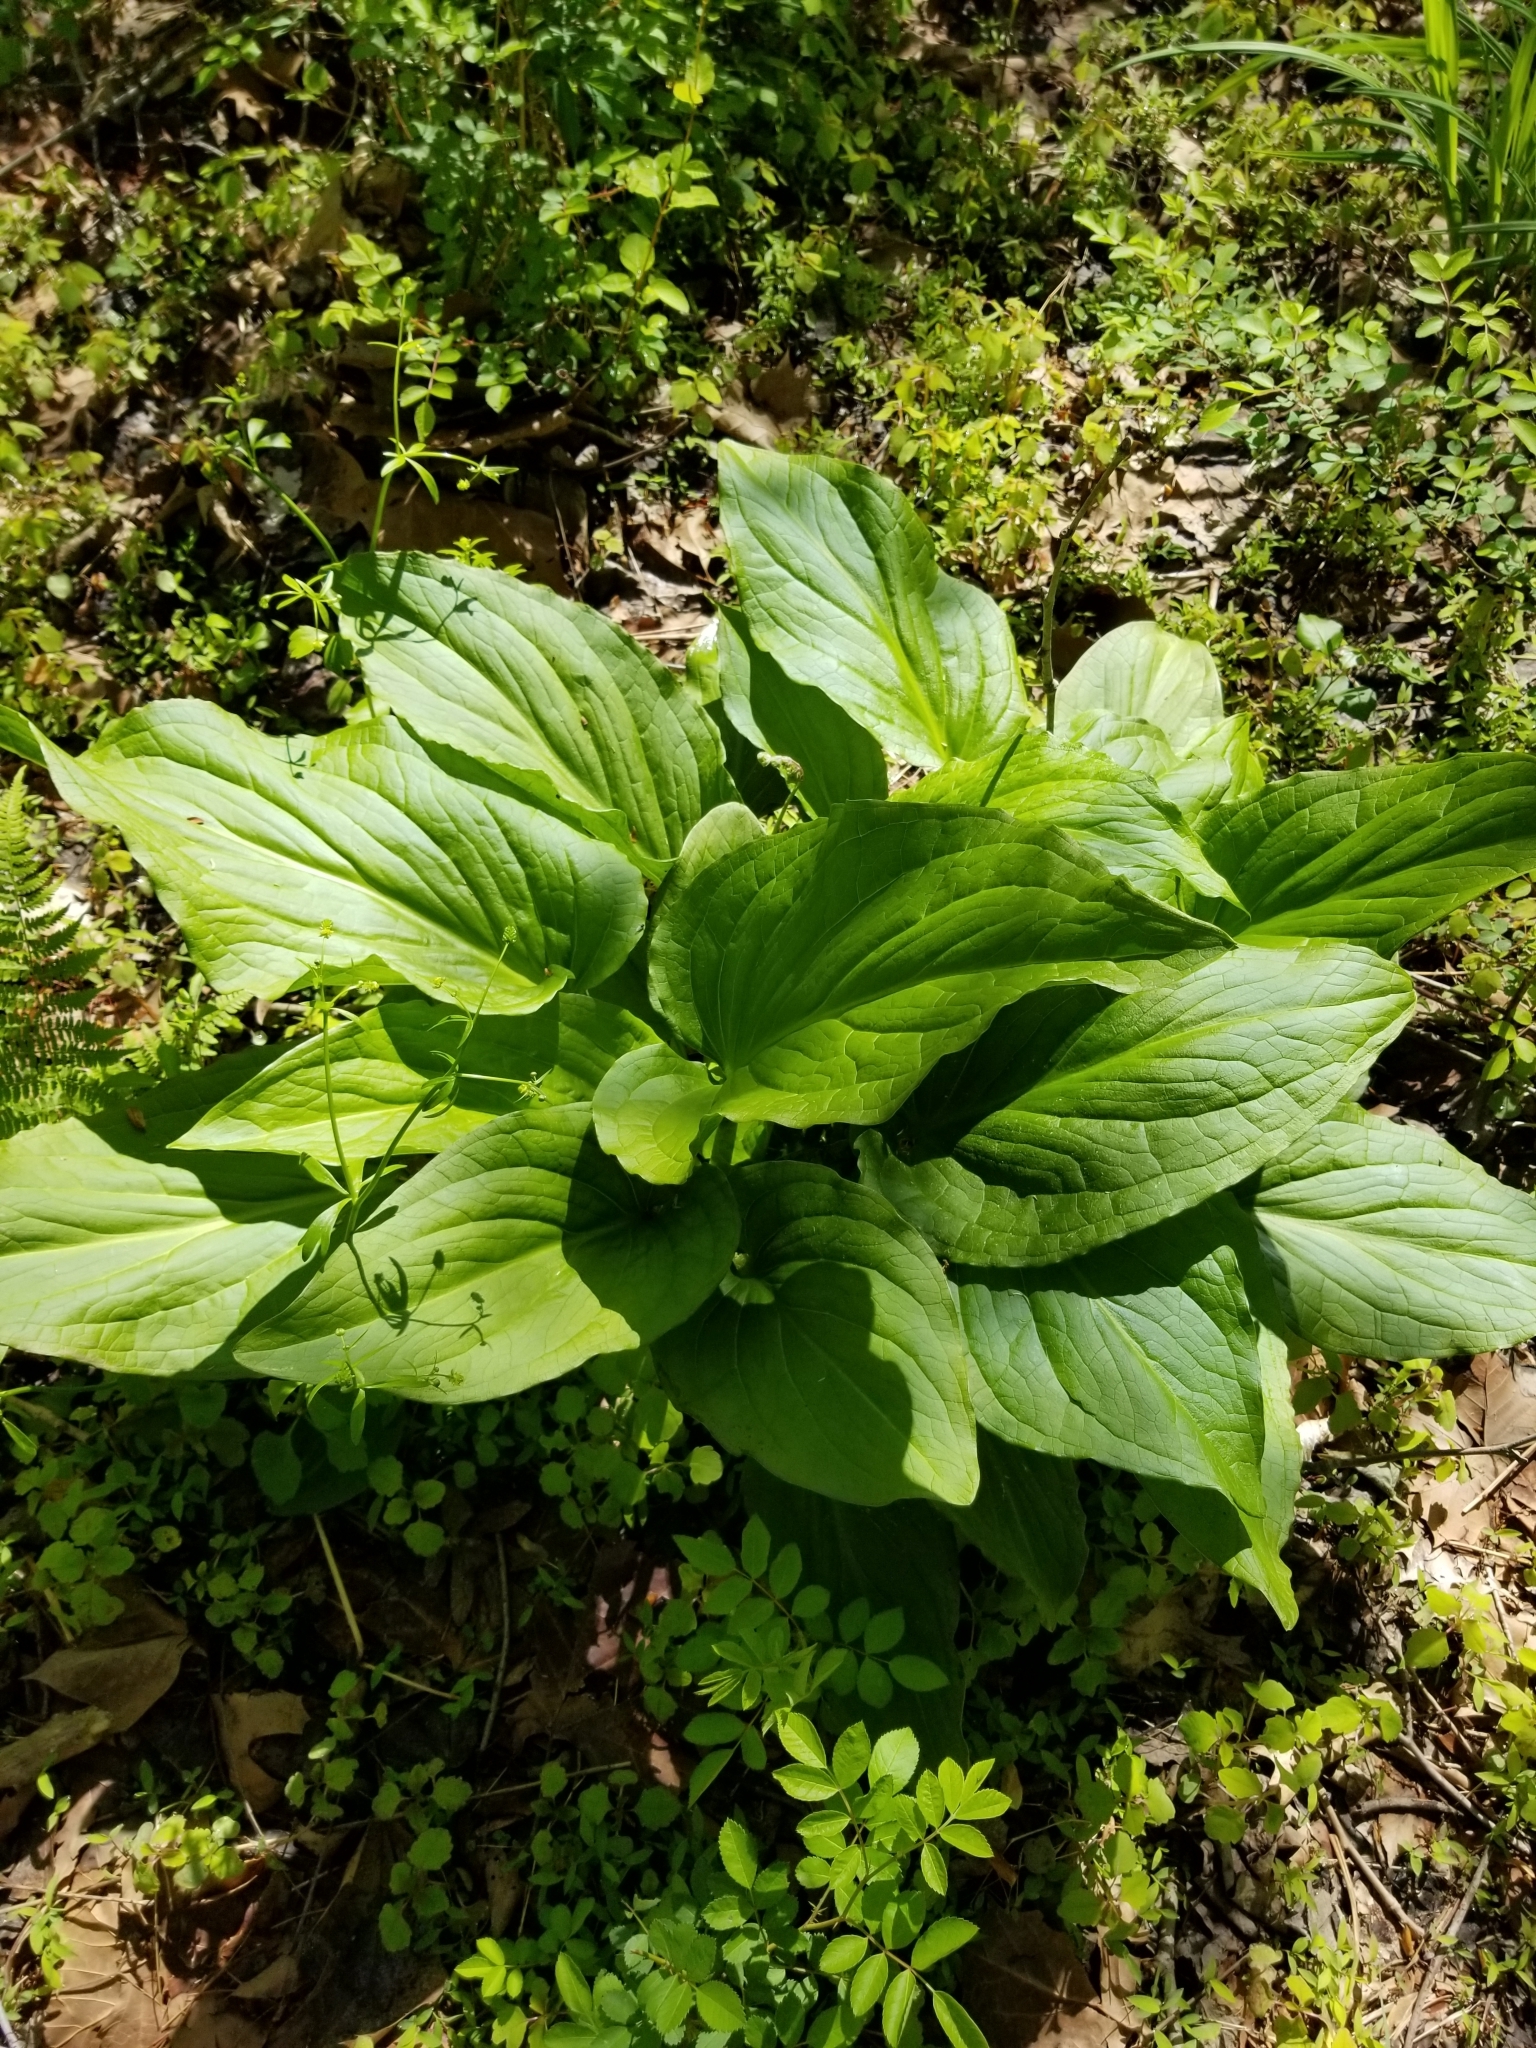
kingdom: Plantae
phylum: Tracheophyta
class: Liliopsida
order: Alismatales
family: Araceae
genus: Symplocarpus
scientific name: Symplocarpus foetidus
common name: Eastern skunk cabbage
